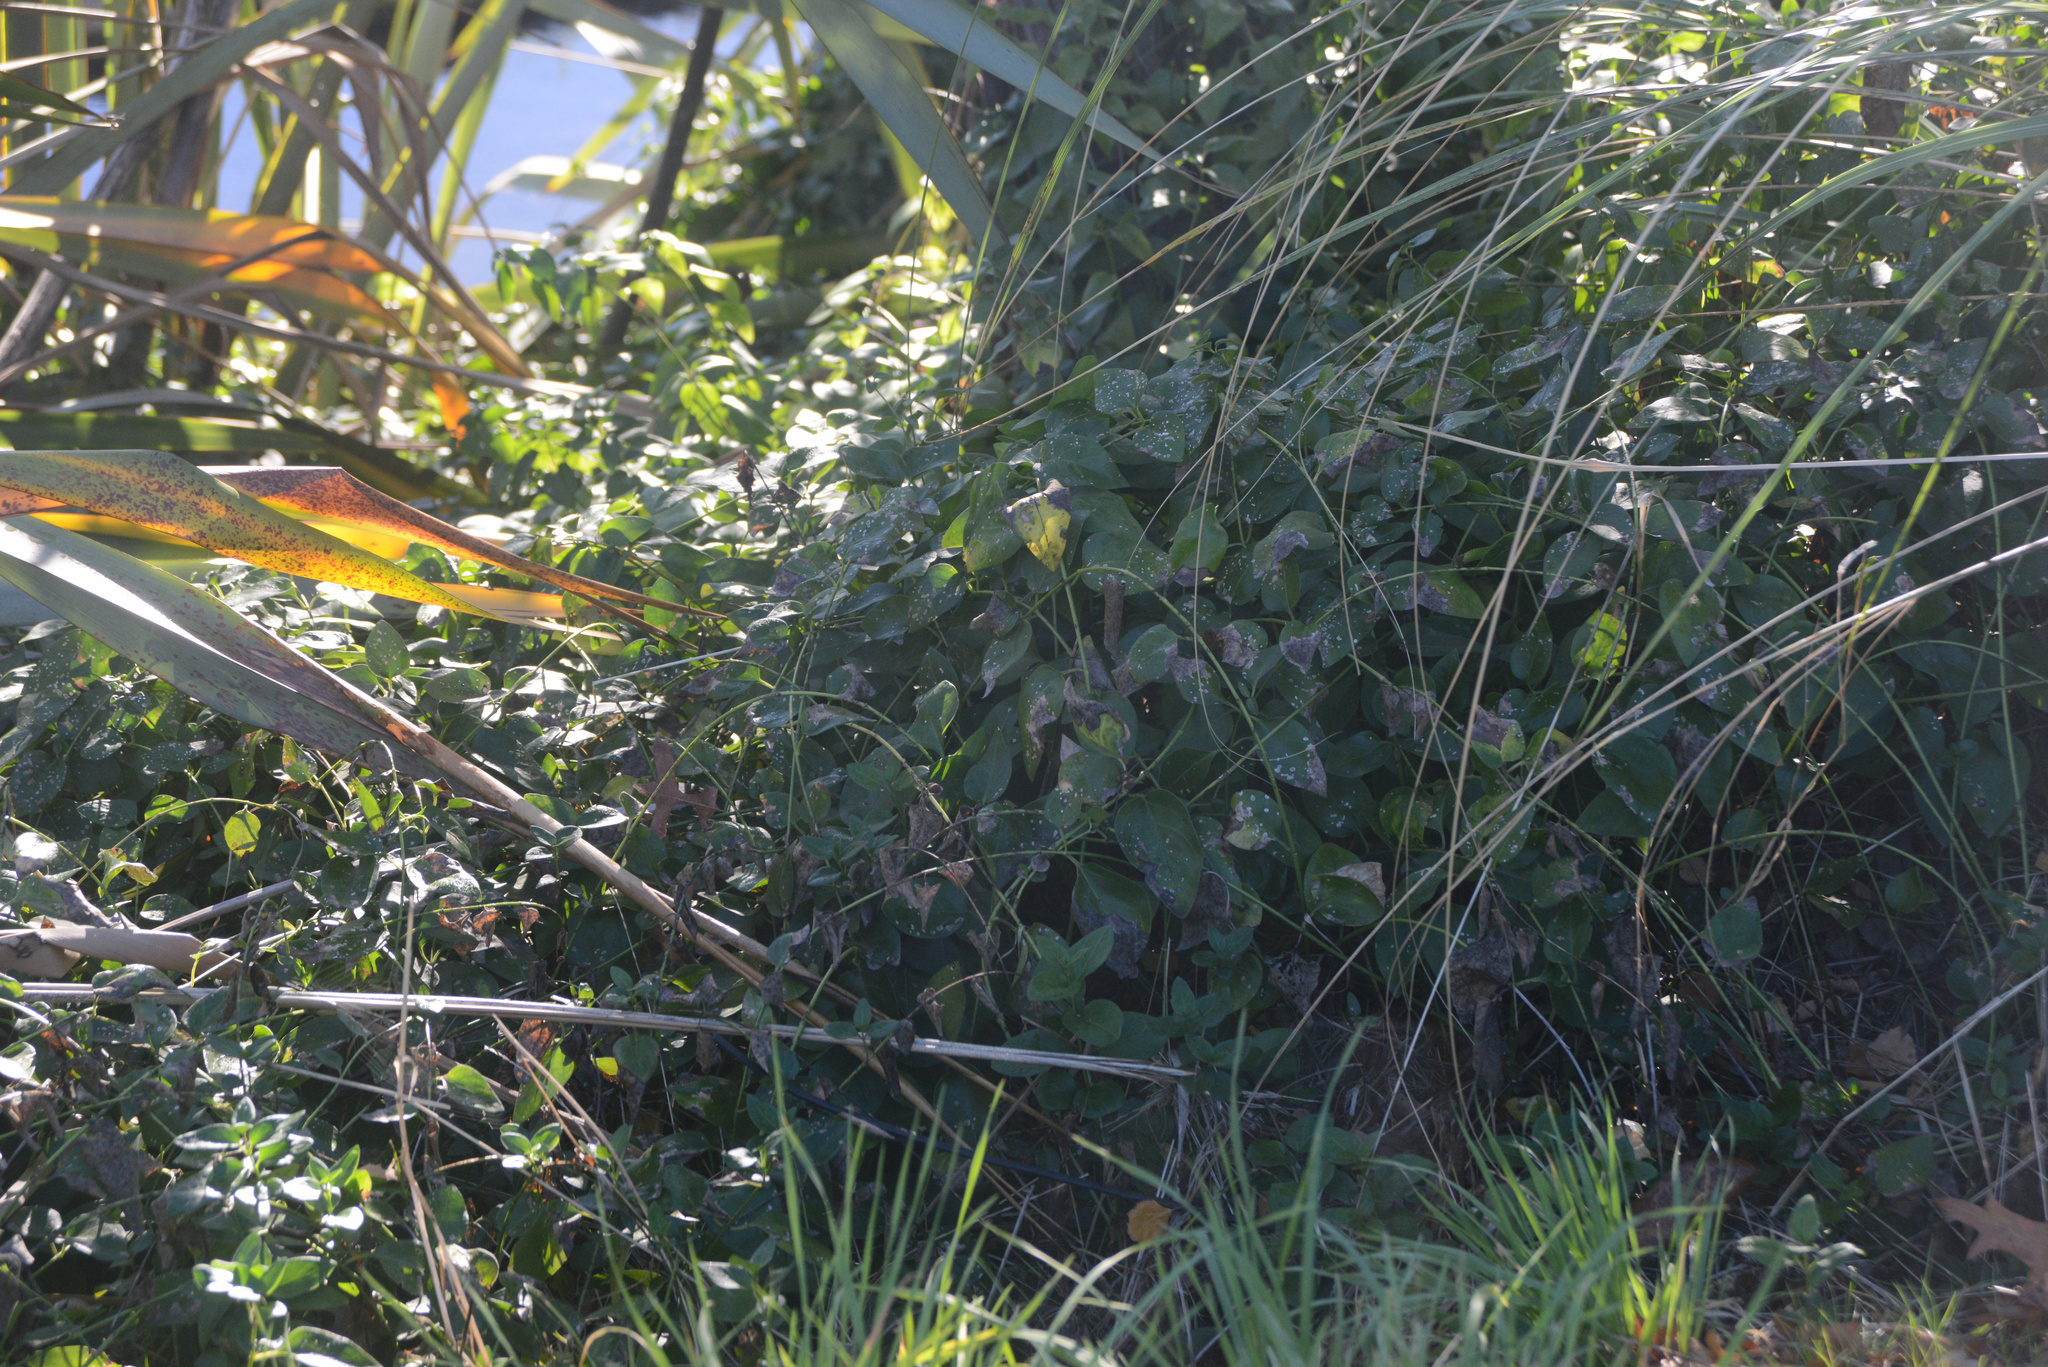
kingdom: Plantae
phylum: Tracheophyta
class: Magnoliopsida
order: Gentianales
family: Apocynaceae
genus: Vinca
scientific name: Vinca major
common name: Greater periwinkle
